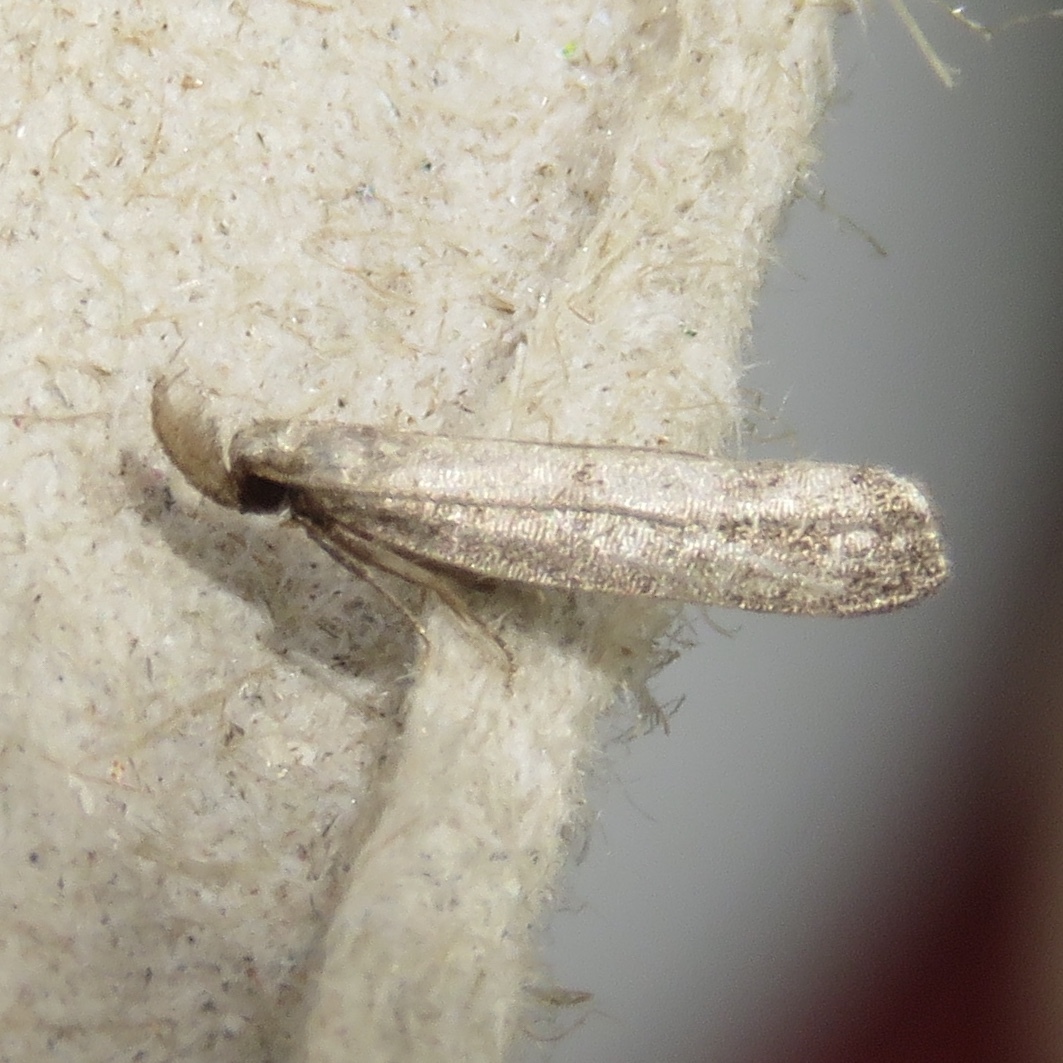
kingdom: Animalia
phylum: Arthropoda
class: Insecta
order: Lepidoptera
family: Gelechiidae
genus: Dichomeris
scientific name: Dichomeris inversella
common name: Inverse dichomeris moth
